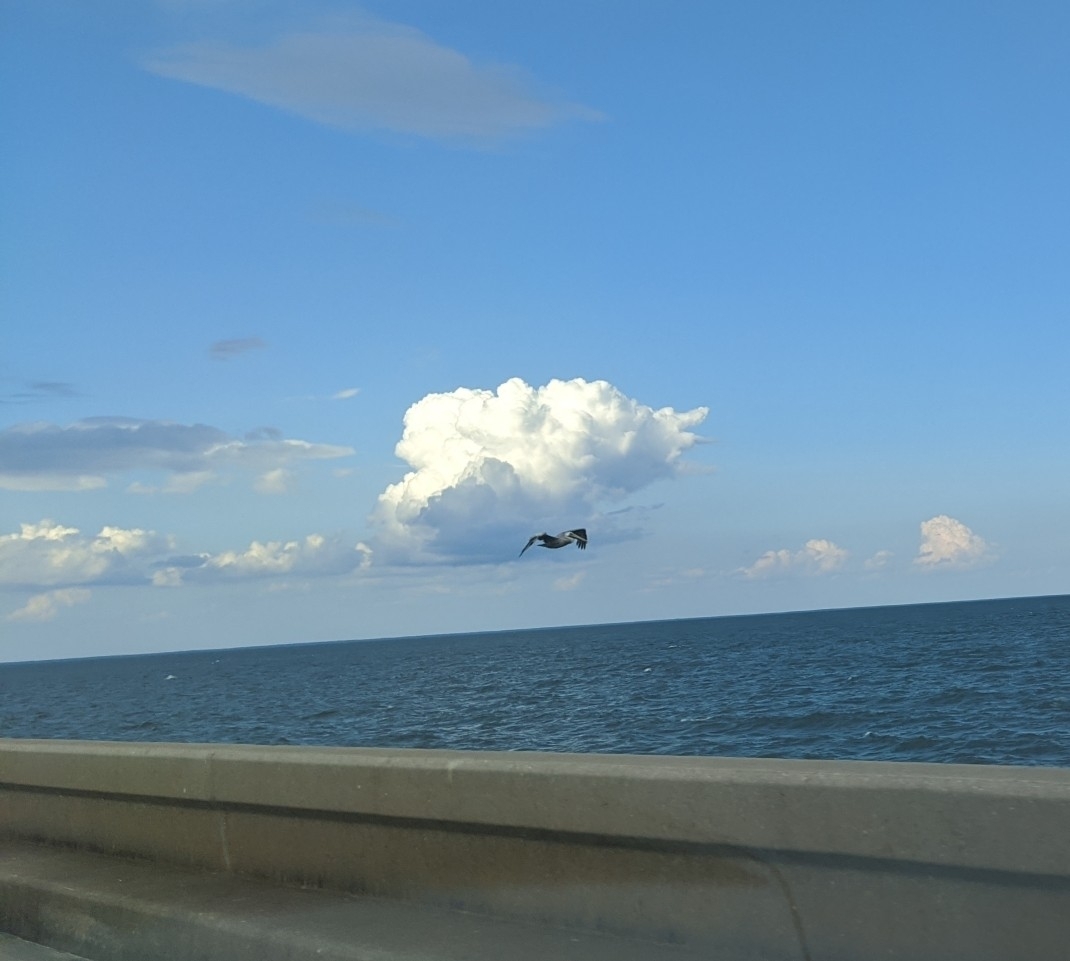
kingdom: Animalia
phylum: Chordata
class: Aves
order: Pelecaniformes
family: Pelecanidae
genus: Pelecanus
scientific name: Pelecanus occidentalis
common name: Brown pelican
